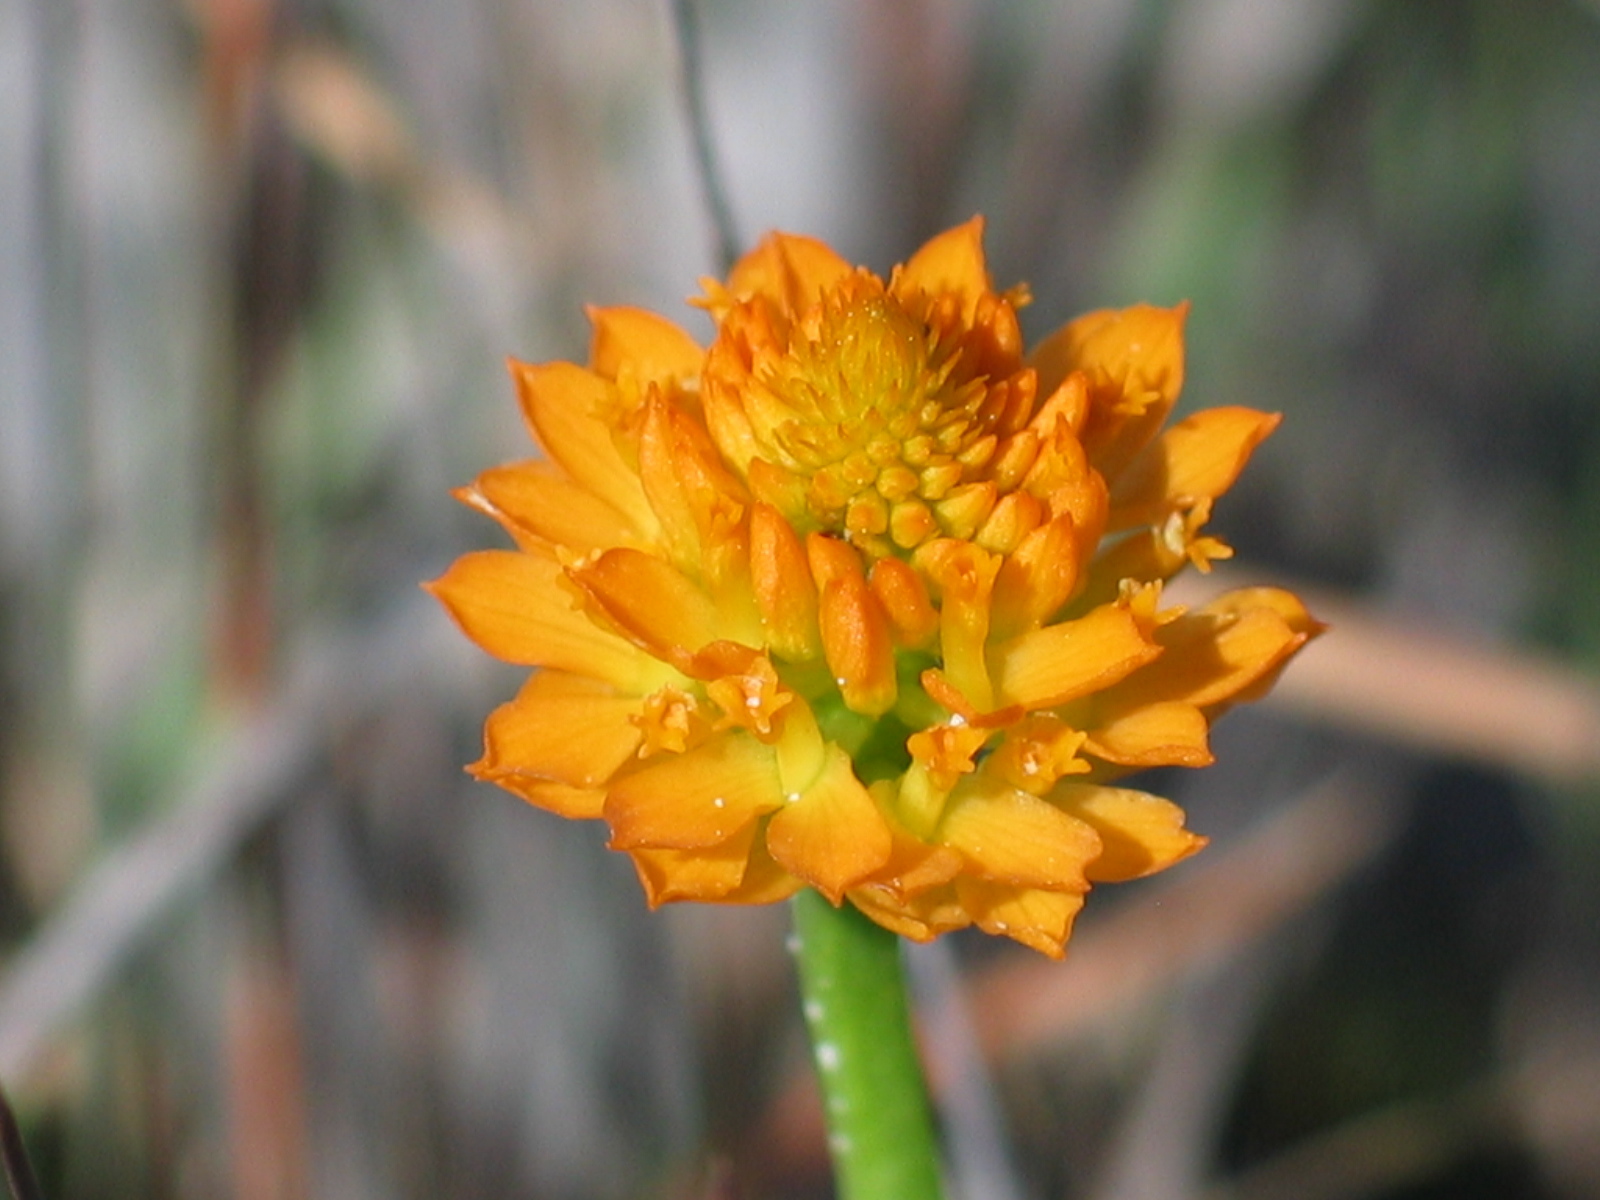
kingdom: Plantae
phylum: Tracheophyta
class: Magnoliopsida
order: Fabales
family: Polygalaceae
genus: Polygala
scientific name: Polygala lutea
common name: Orange milkwort
